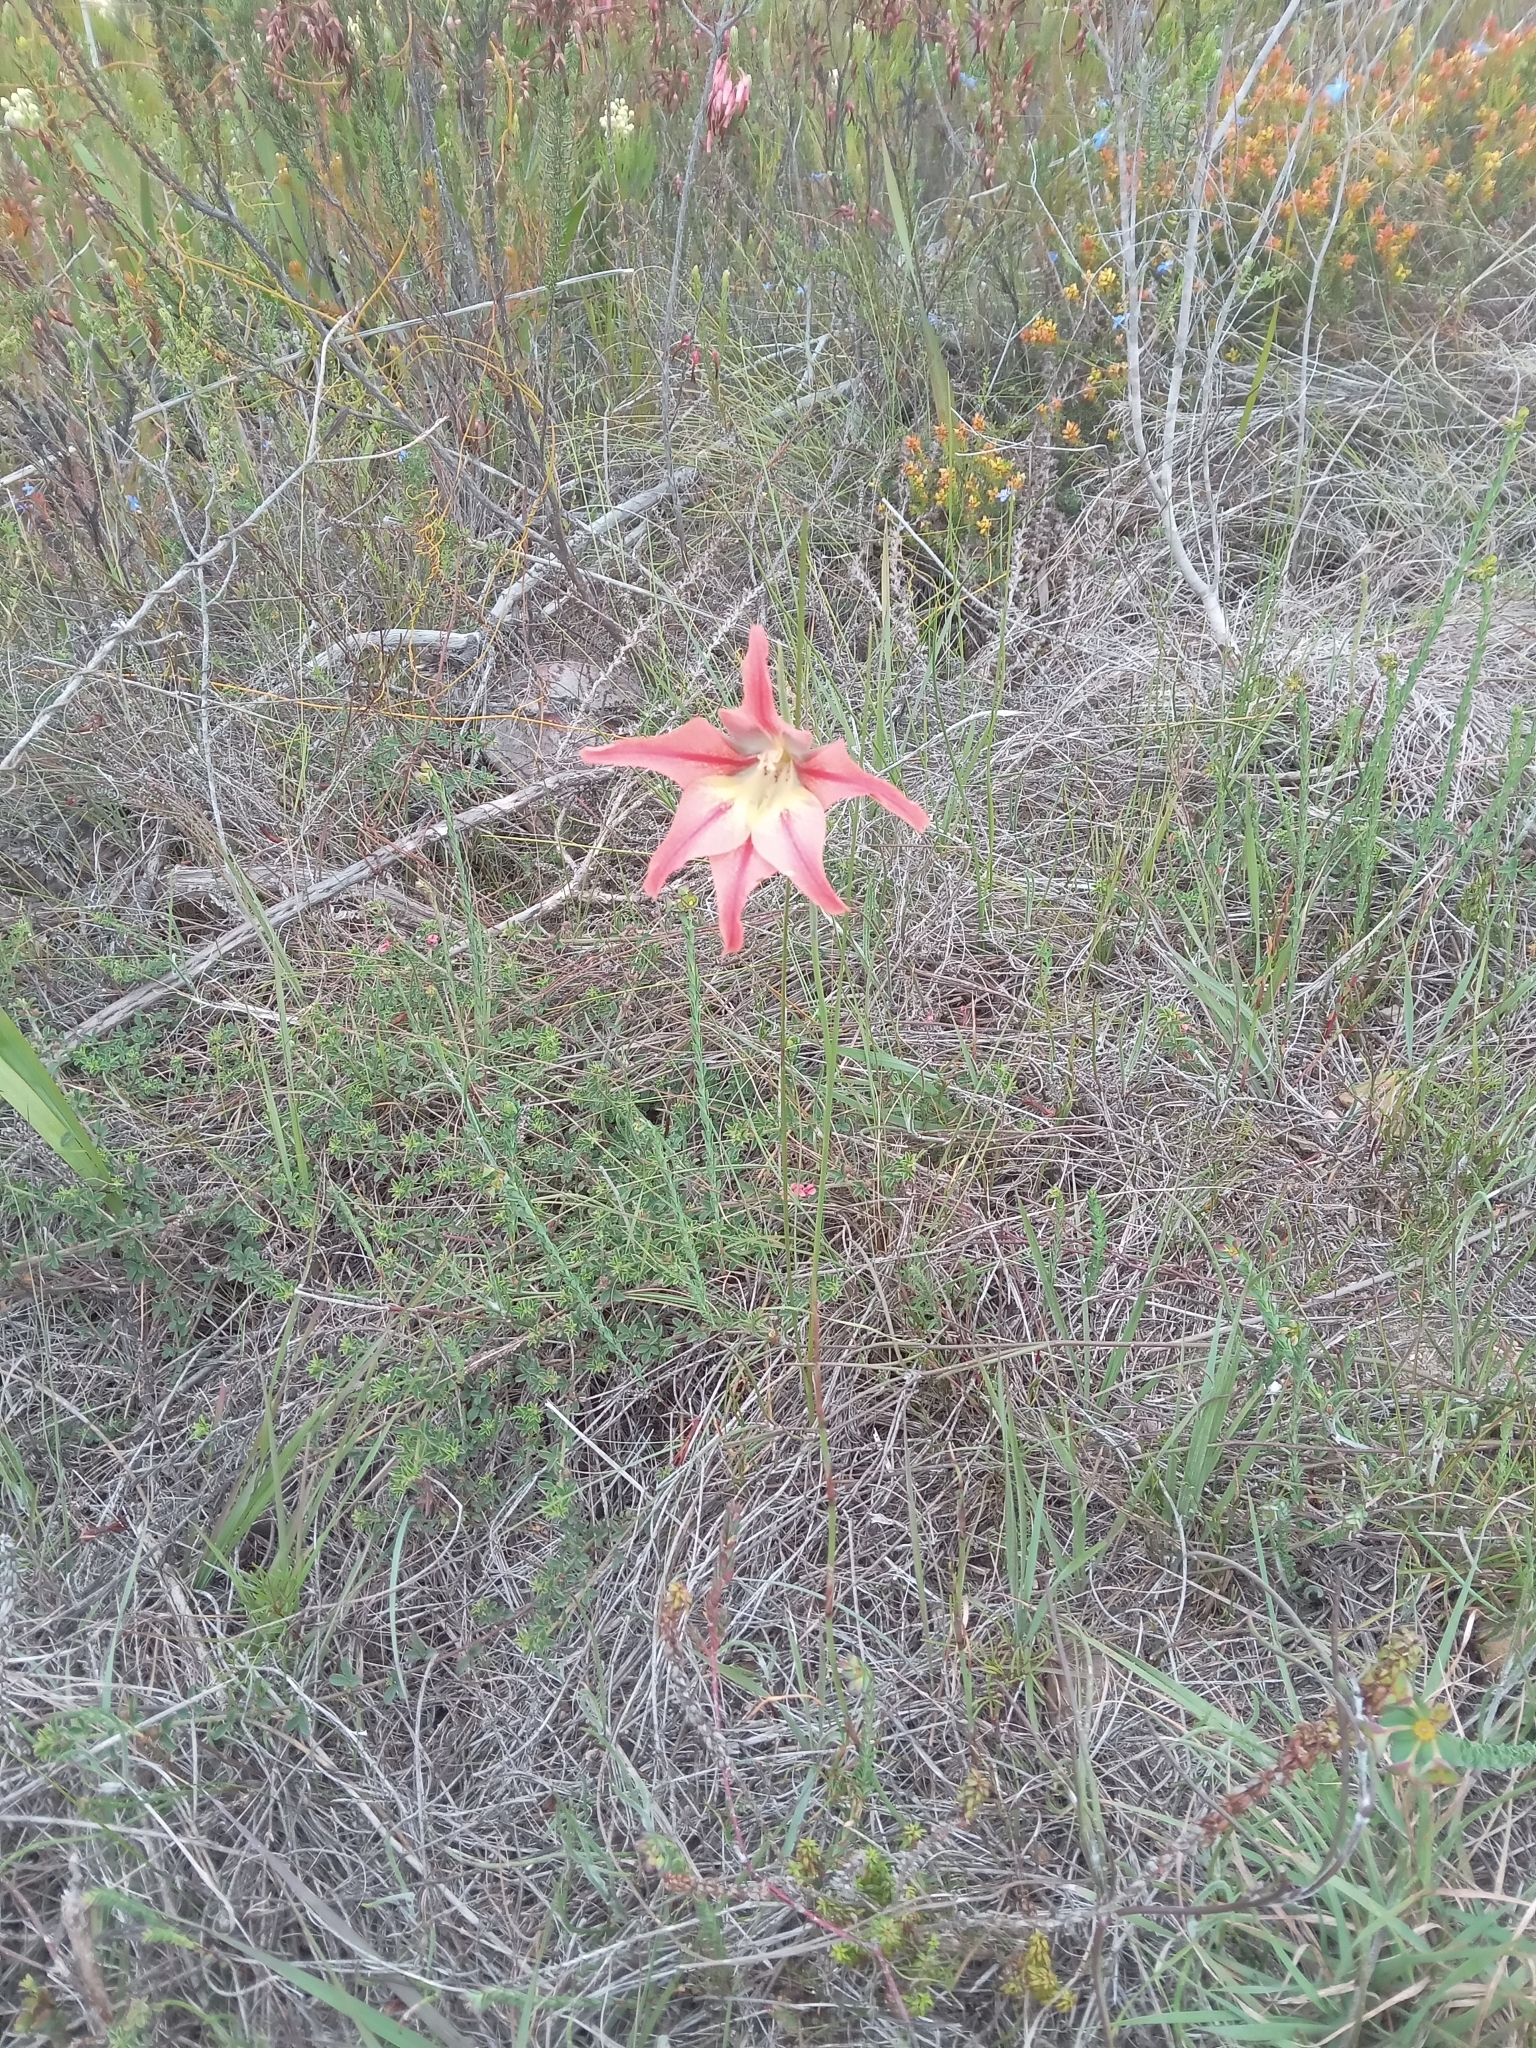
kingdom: Plantae
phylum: Tracheophyta
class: Liliopsida
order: Asparagales
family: Iridaceae
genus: Gladiolus
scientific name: Gladiolus liliaceus
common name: Large brown afrikaner
